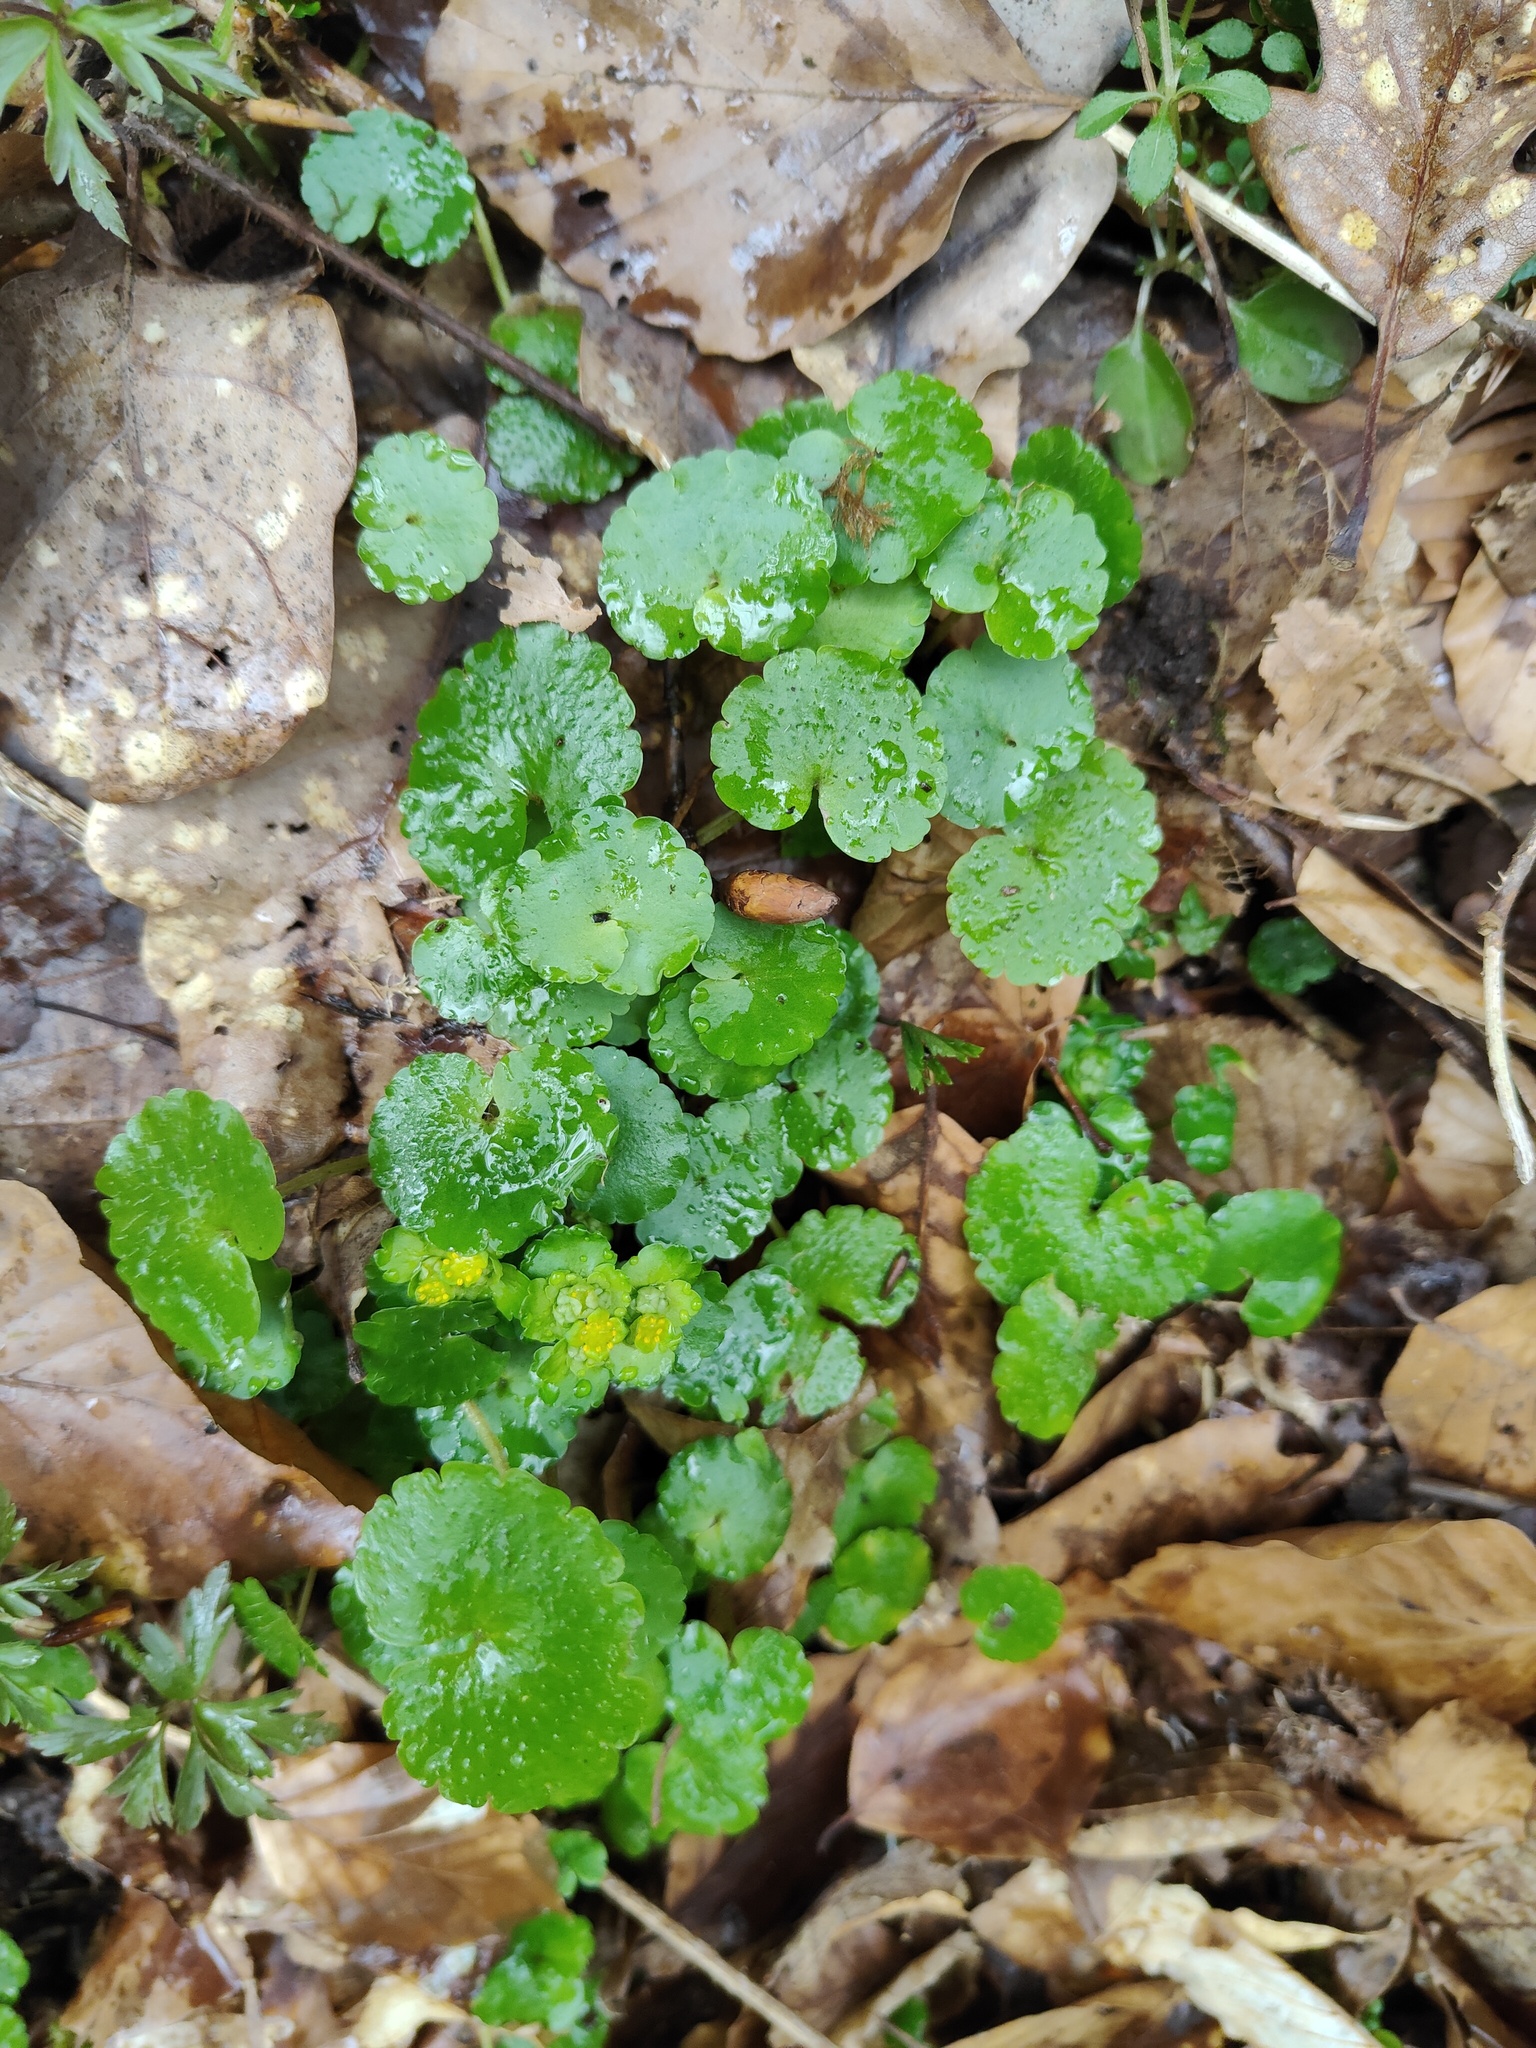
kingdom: Plantae
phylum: Tracheophyta
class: Magnoliopsida
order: Saxifragales
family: Saxifragaceae
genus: Chrysosplenium
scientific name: Chrysosplenium alternifolium
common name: Alternate-leaved golden-saxifrage
